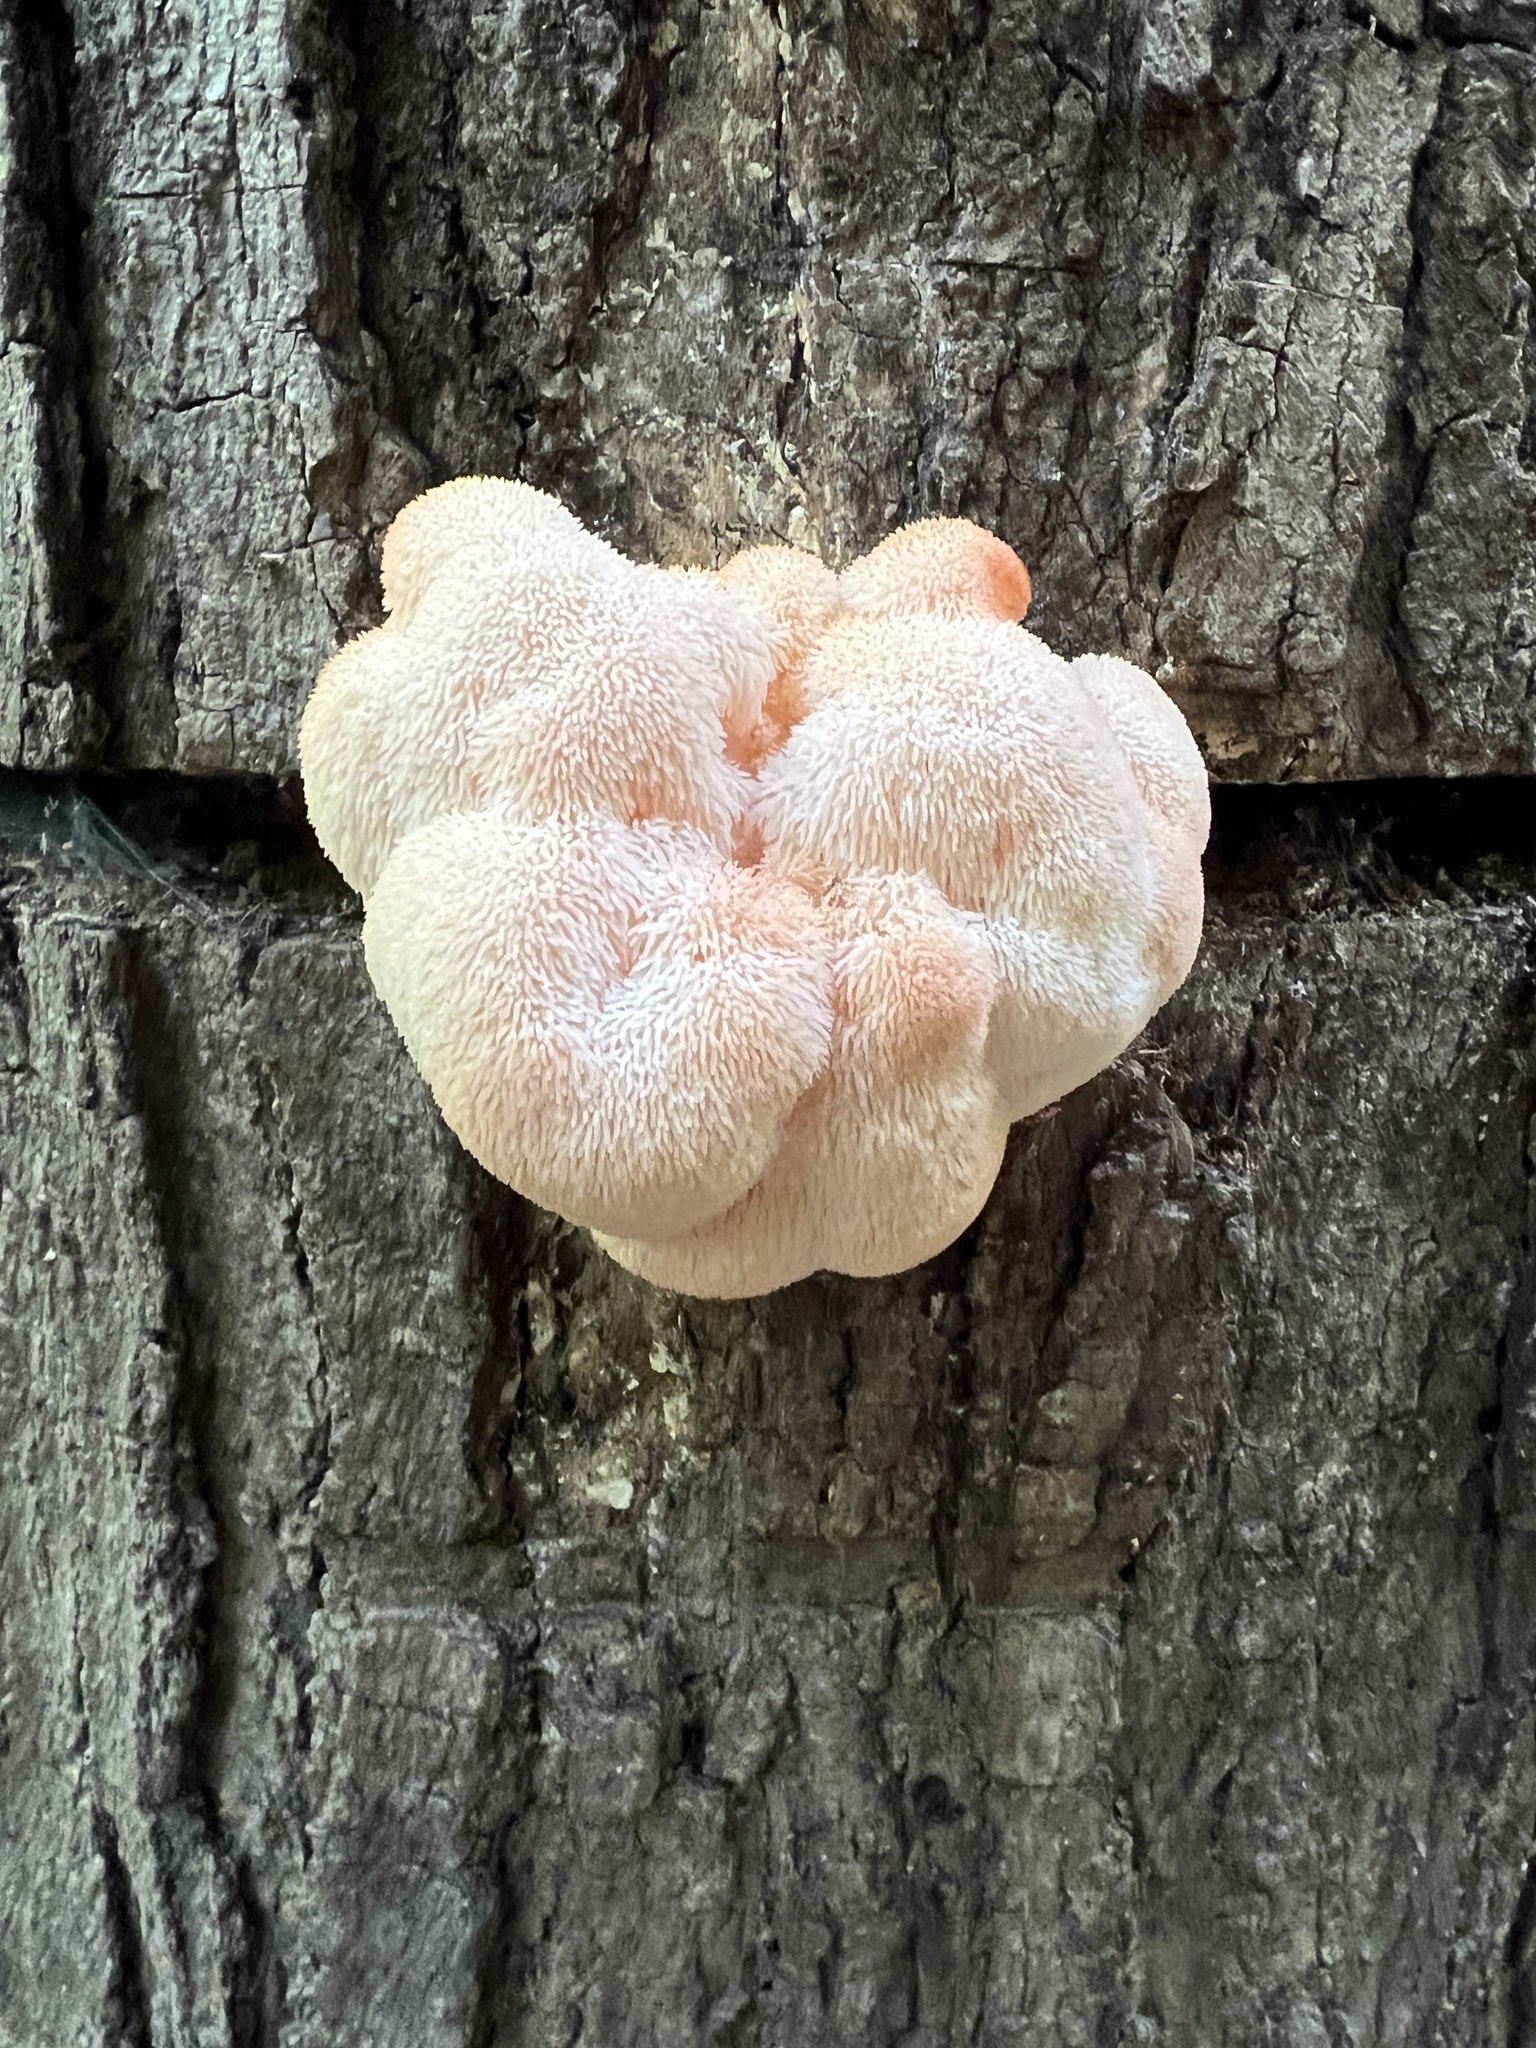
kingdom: Fungi
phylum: Basidiomycota
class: Agaricomycetes
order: Russulales
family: Hericiaceae
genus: Hericium
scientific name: Hericium erinaceus
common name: Bearded tooth
